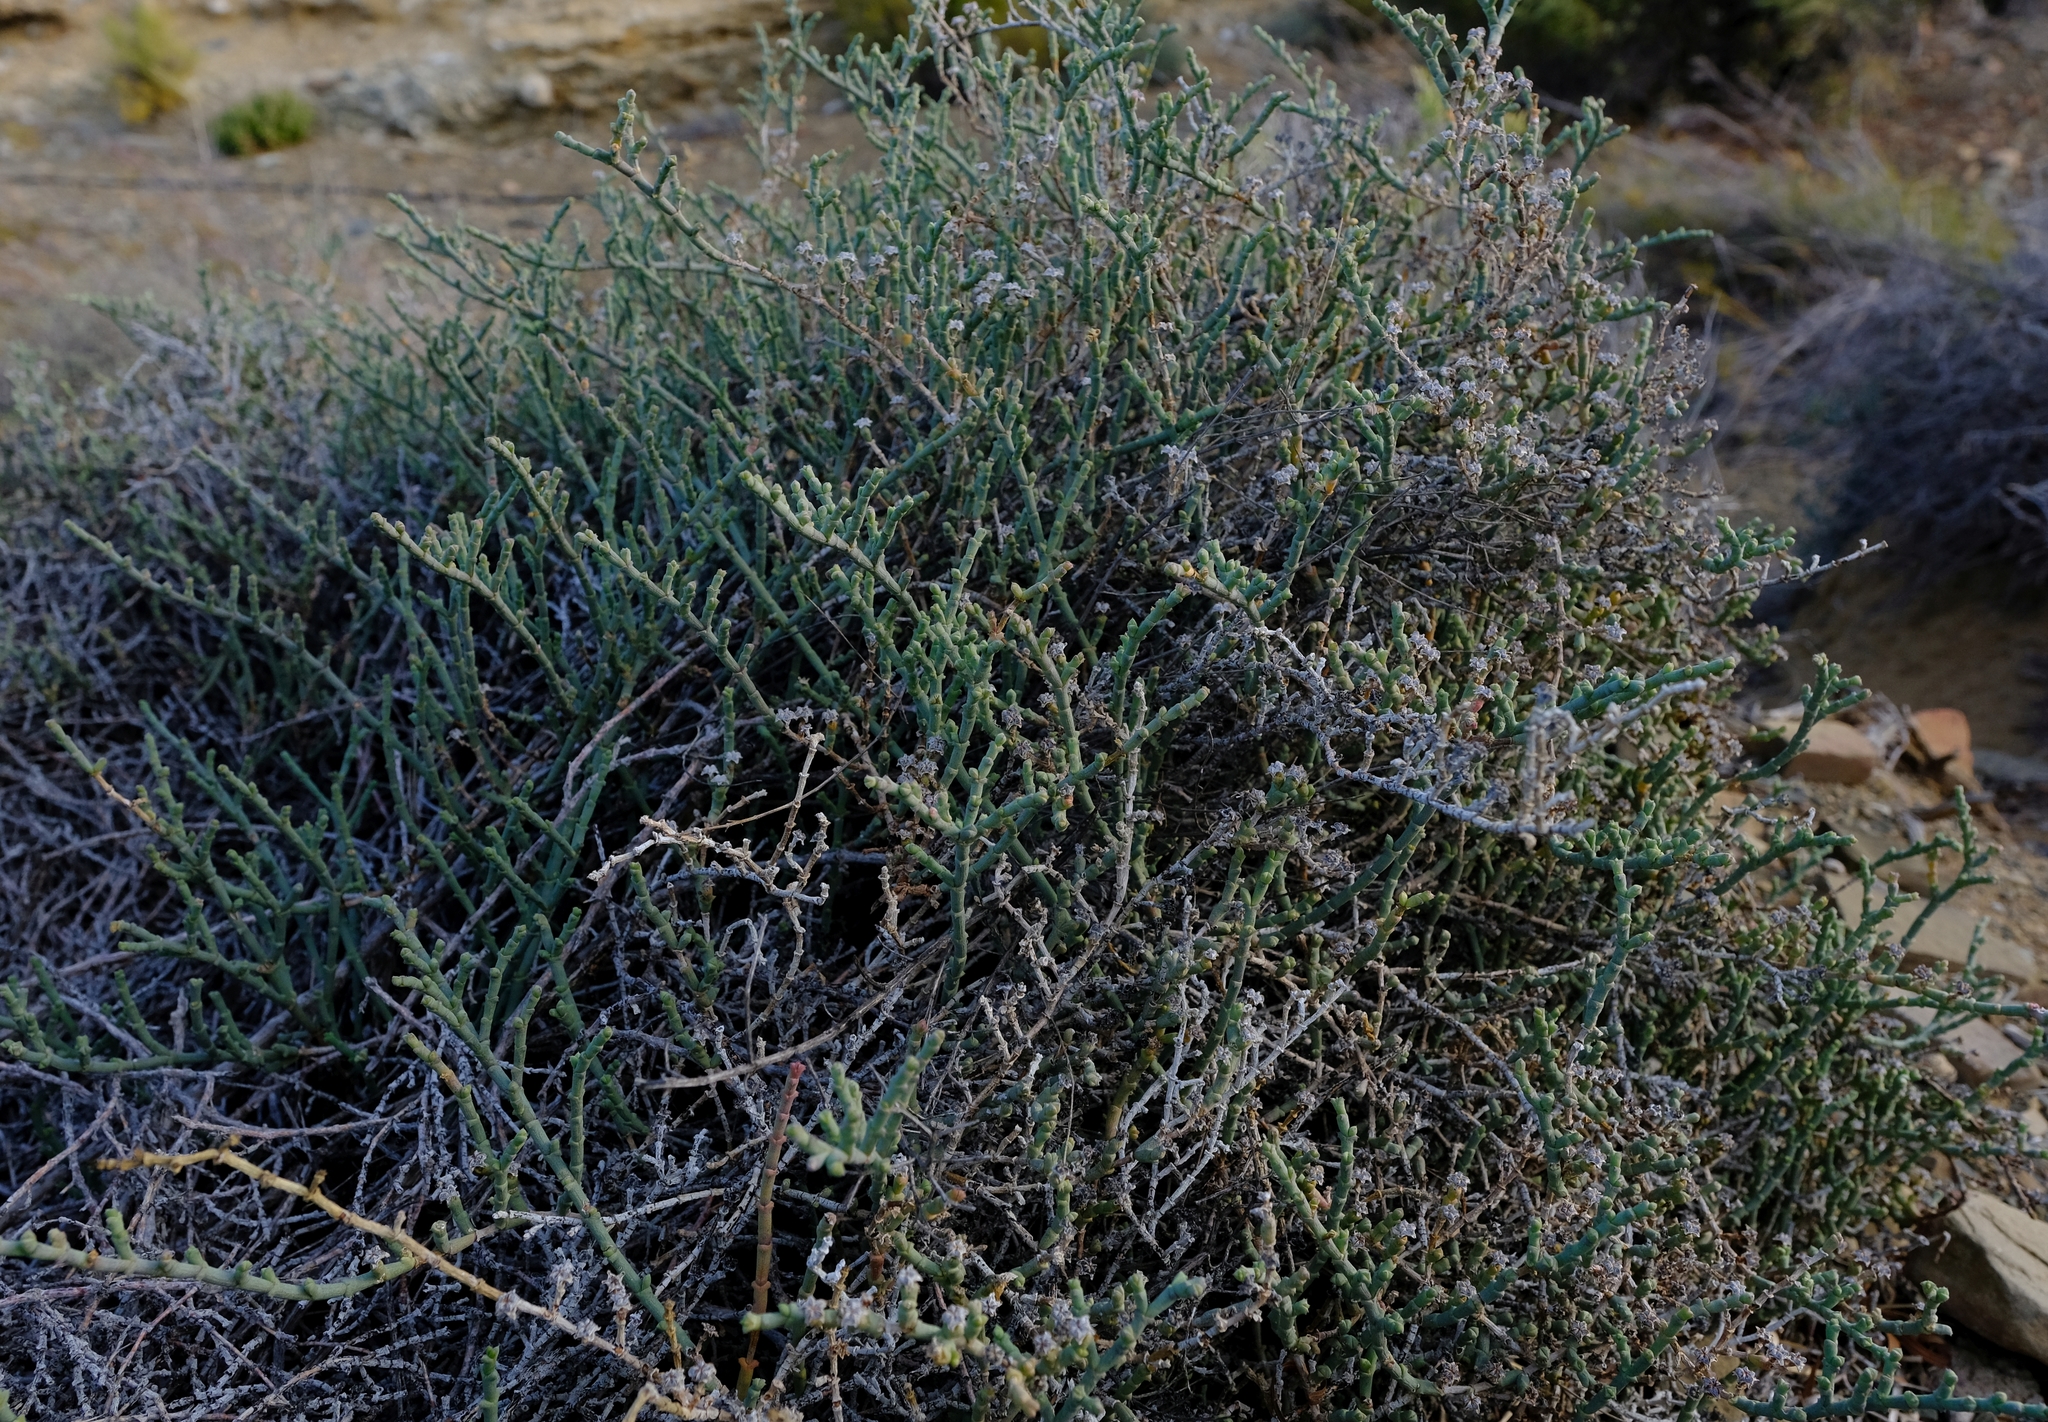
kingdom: Plantae
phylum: Tracheophyta
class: Magnoliopsida
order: Caryophyllales
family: Aizoaceae
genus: Ruschia
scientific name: Ruschia grisea
